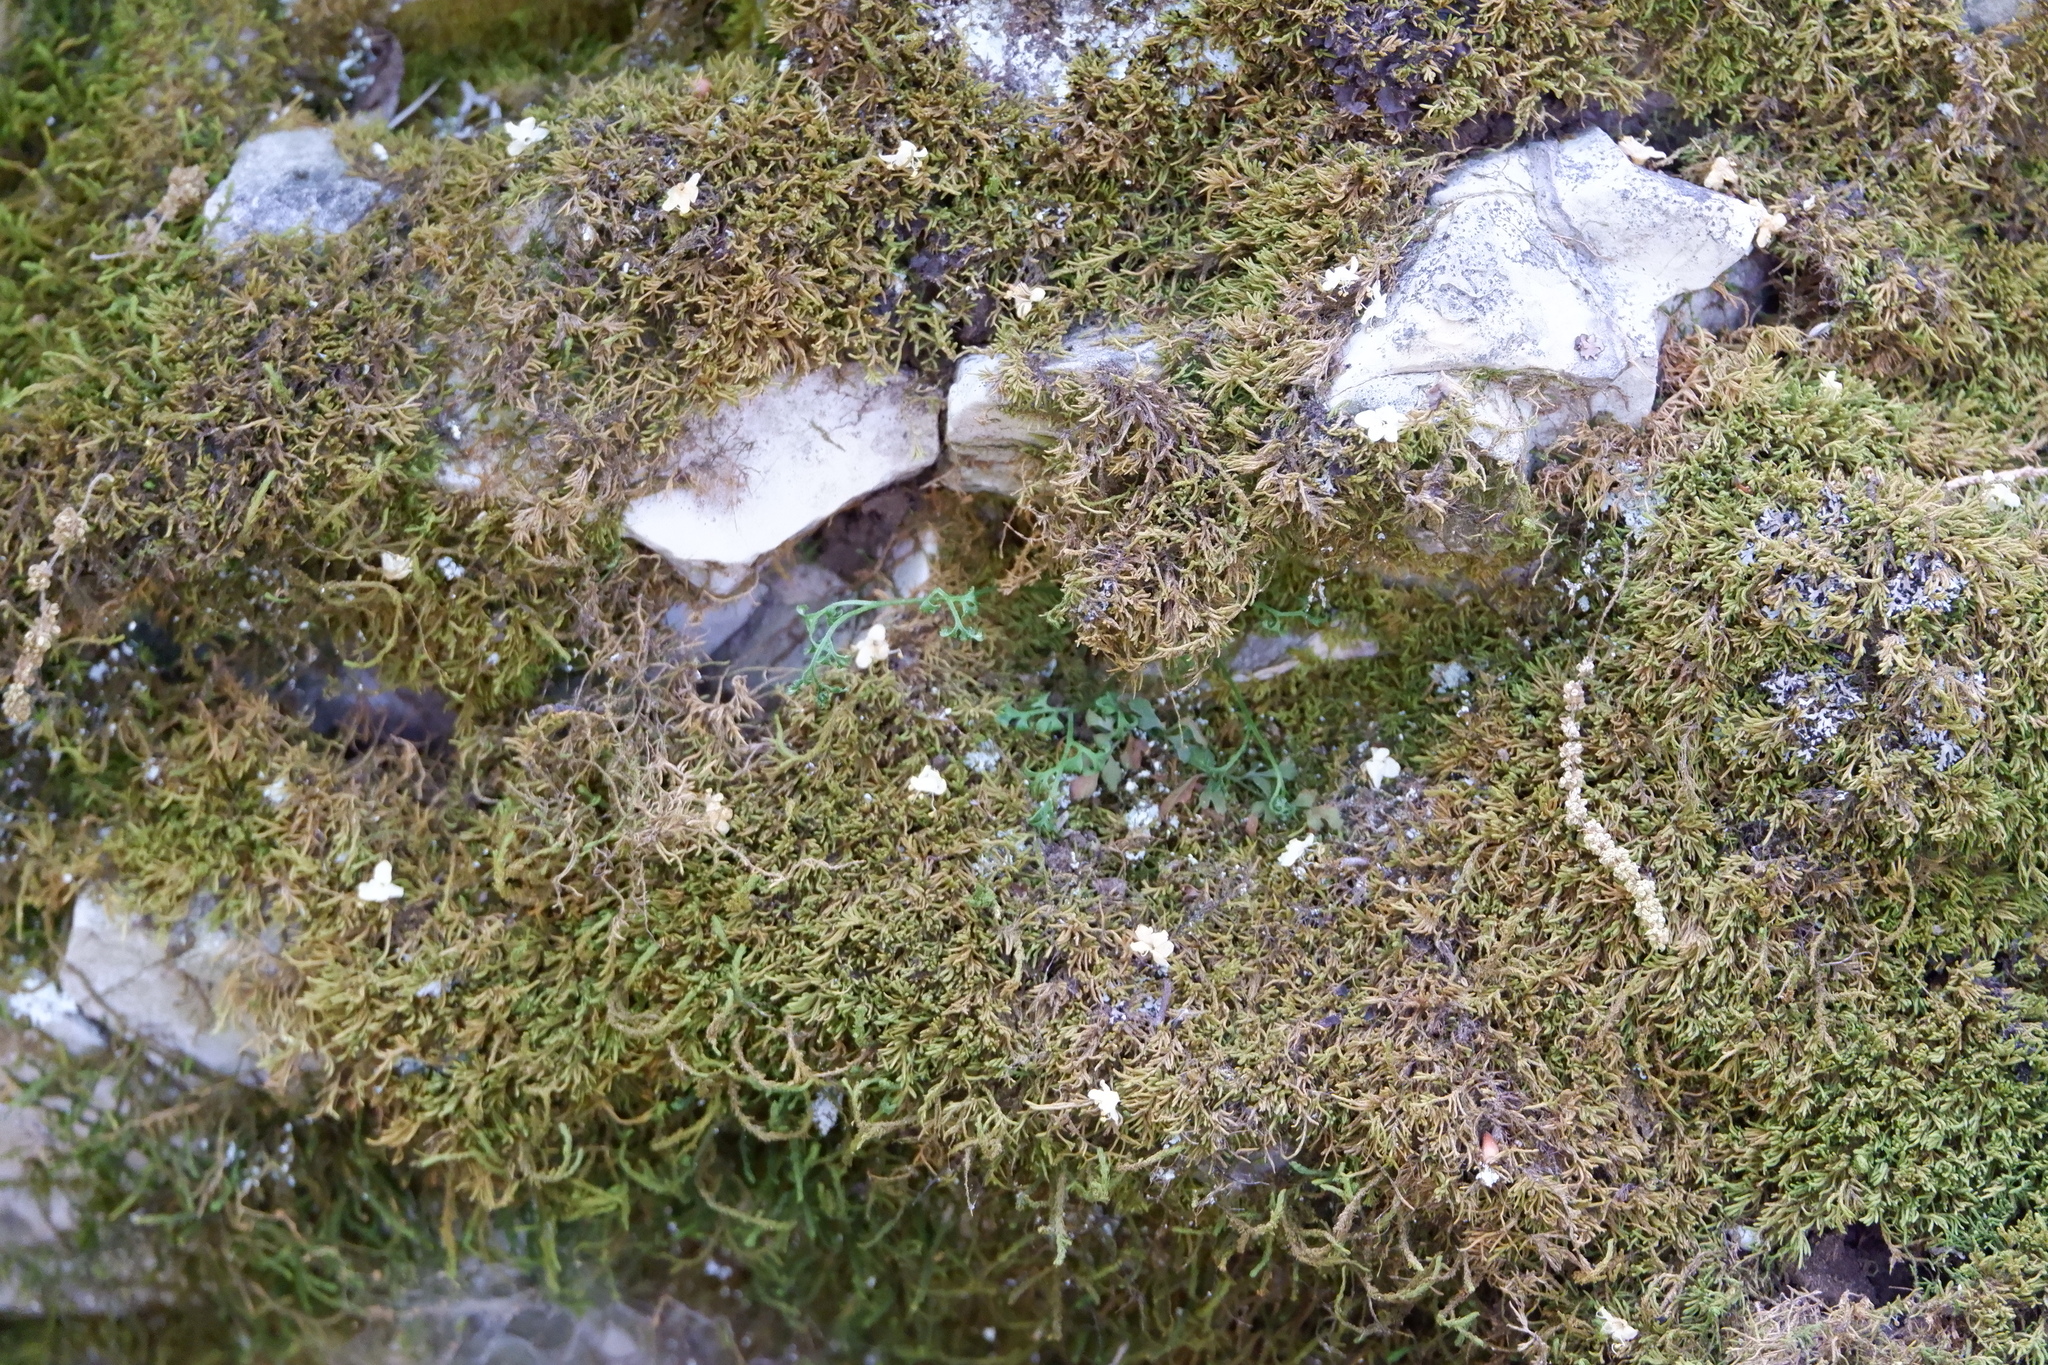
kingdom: Plantae
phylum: Tracheophyta
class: Polypodiopsida
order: Polypodiales
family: Aspleniaceae
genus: Asplenium
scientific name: Asplenium ruta-muraria
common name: Wall-rue
